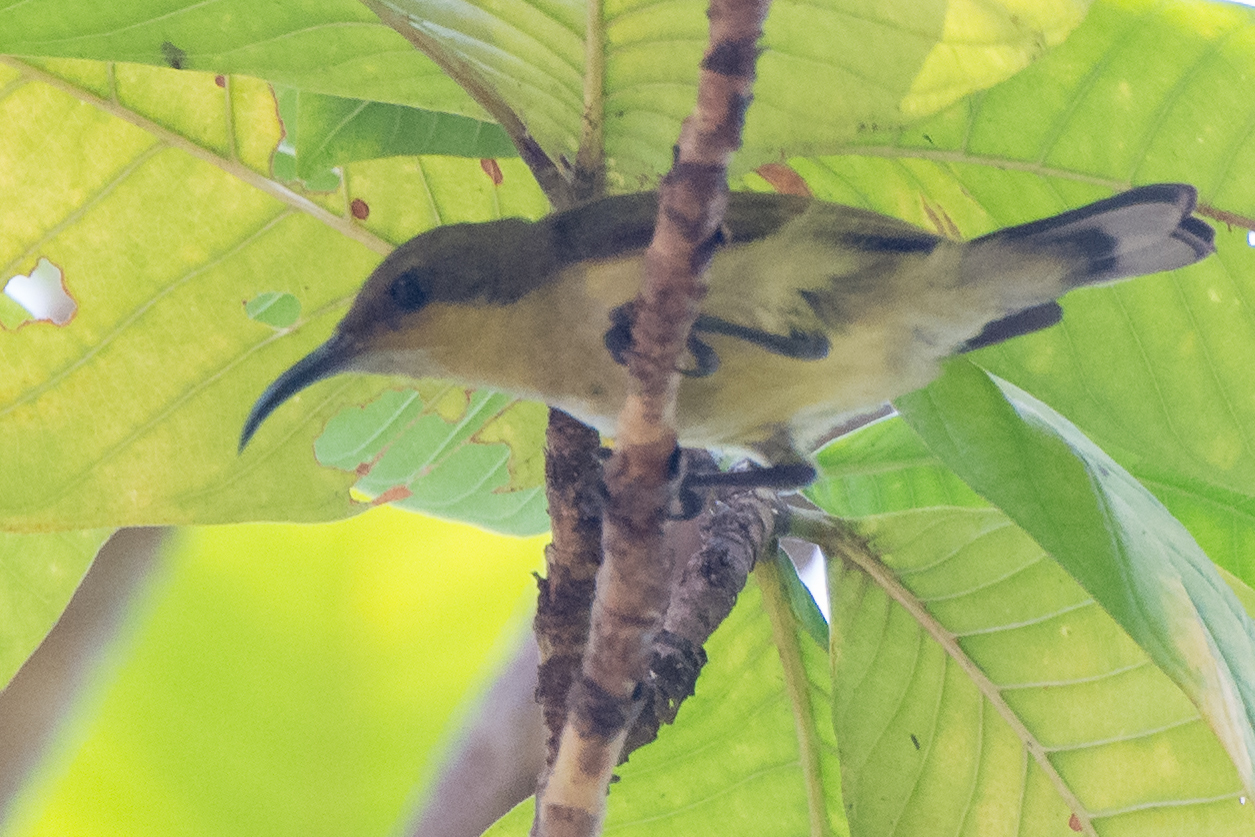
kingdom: Animalia
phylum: Chordata
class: Aves
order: Passeriformes
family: Nectariniidae
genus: Cinnyris
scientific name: Cinnyris asiaticus
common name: Purple sunbird
